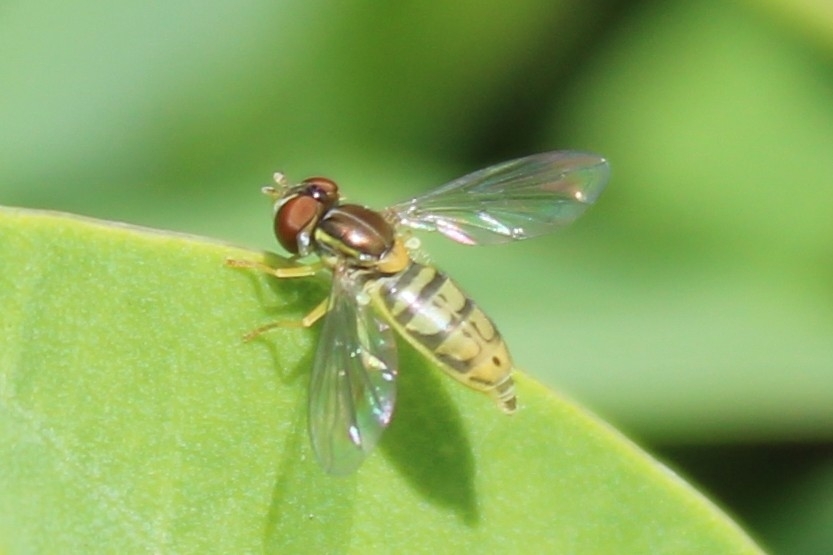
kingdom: Animalia
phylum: Arthropoda
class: Insecta
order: Diptera
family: Syrphidae
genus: Toxomerus
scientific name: Toxomerus marginatus
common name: Syrphid fly
